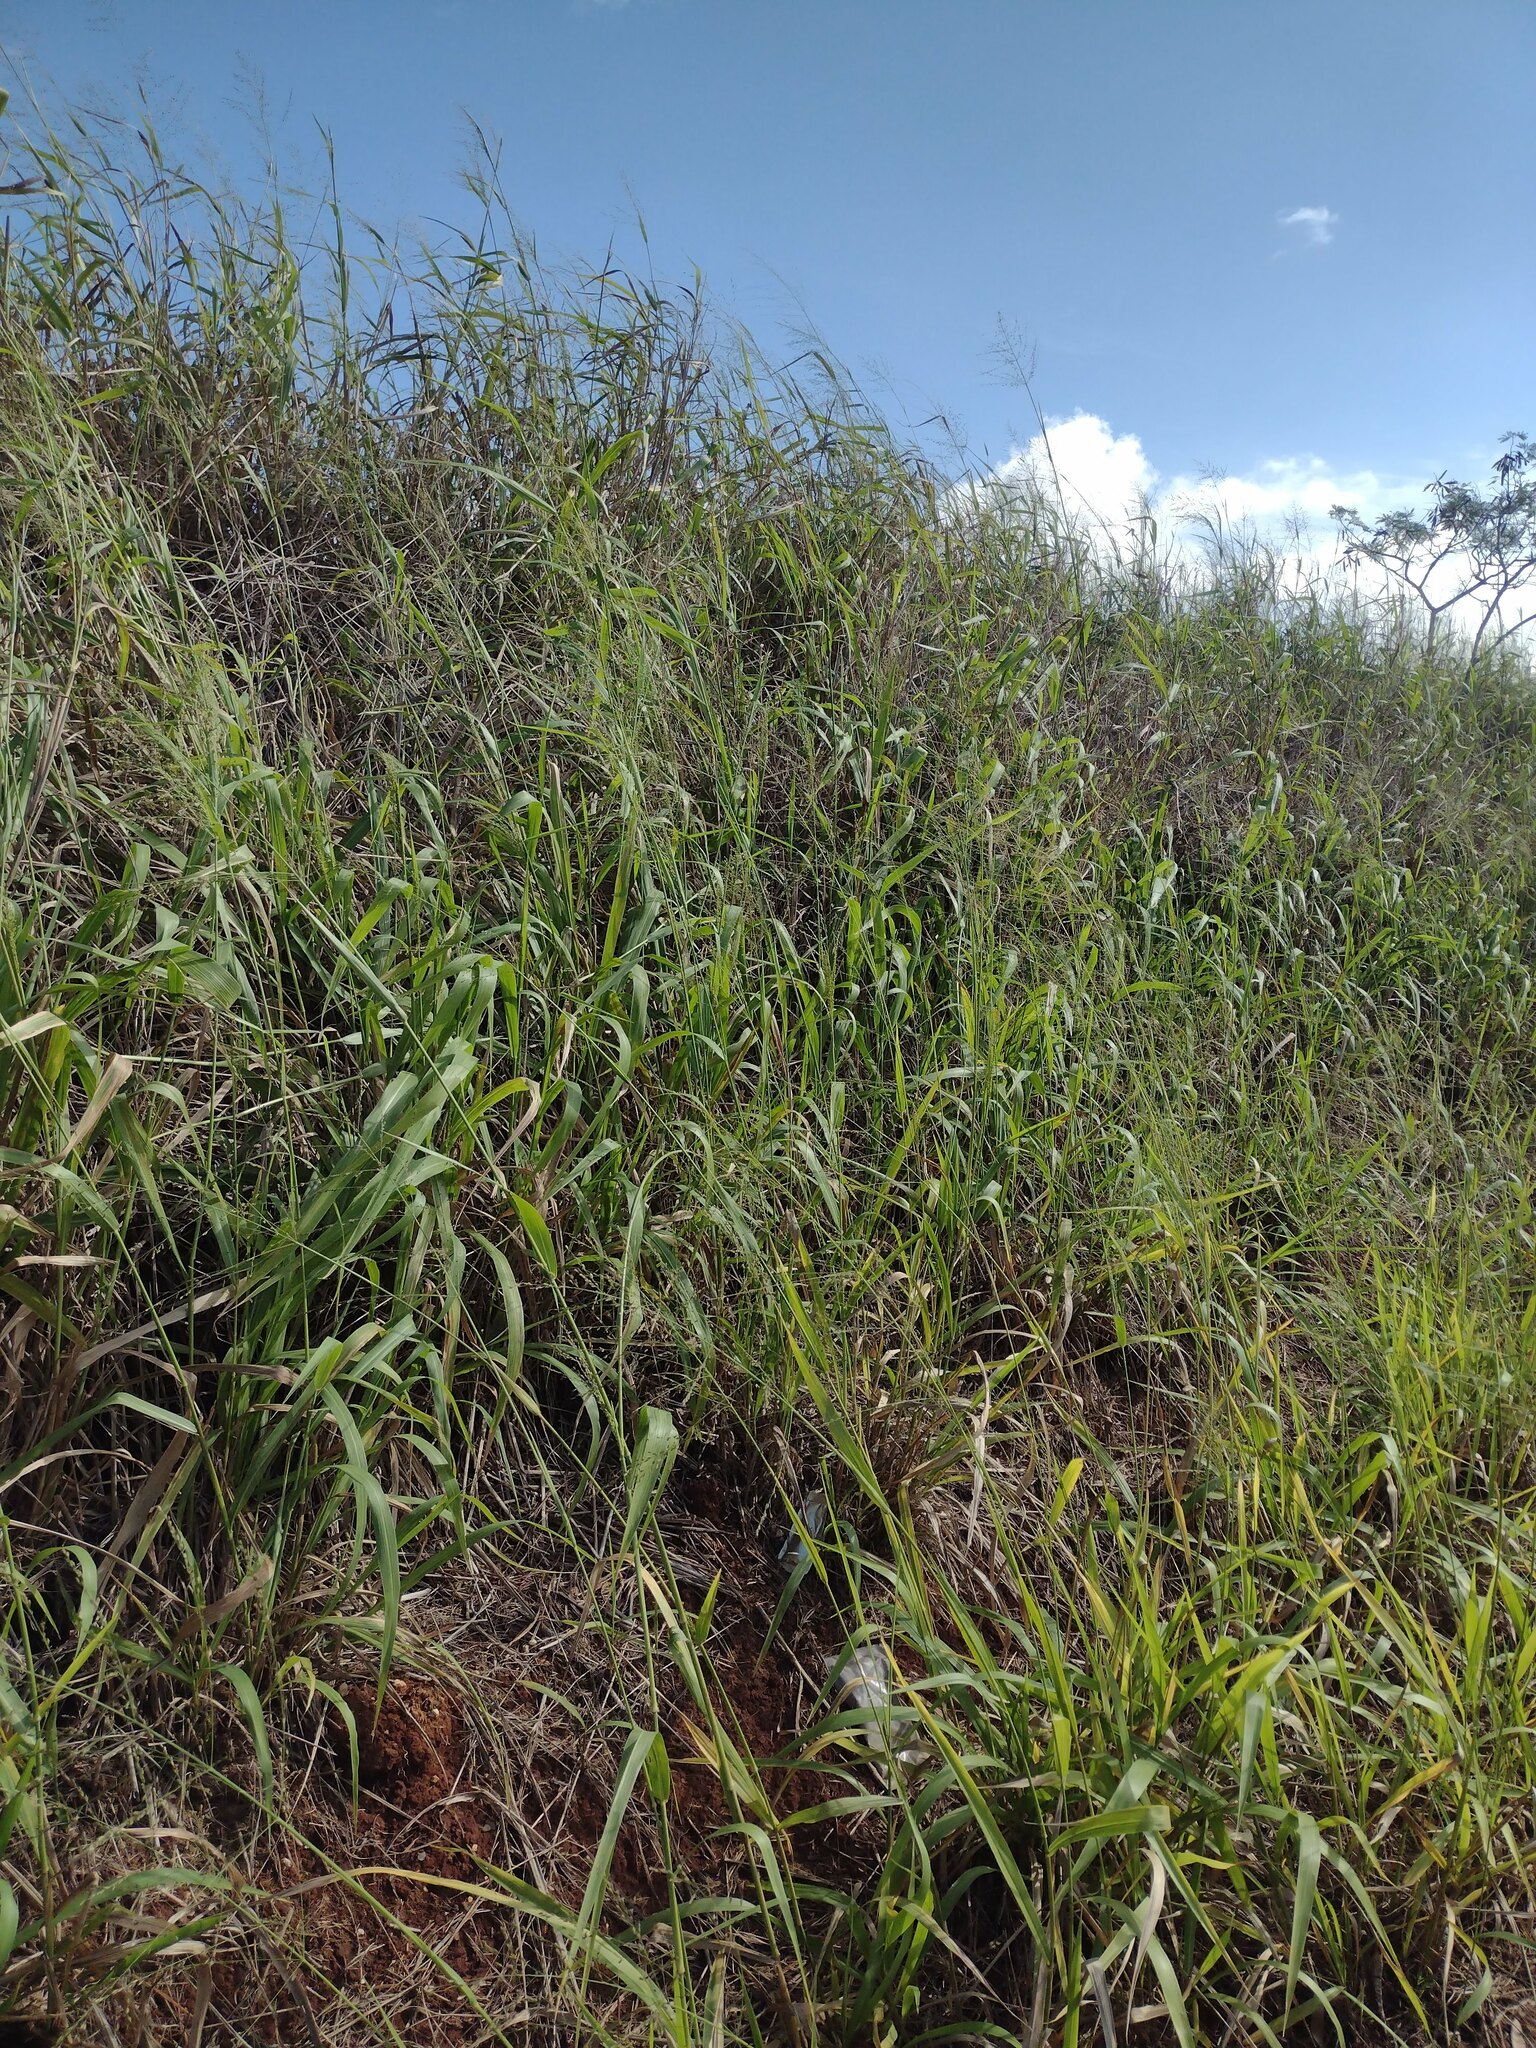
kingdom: Plantae
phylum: Tracheophyta
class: Liliopsida
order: Poales
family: Poaceae
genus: Megathyrsus
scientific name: Megathyrsus maximus
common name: Guineagrass
